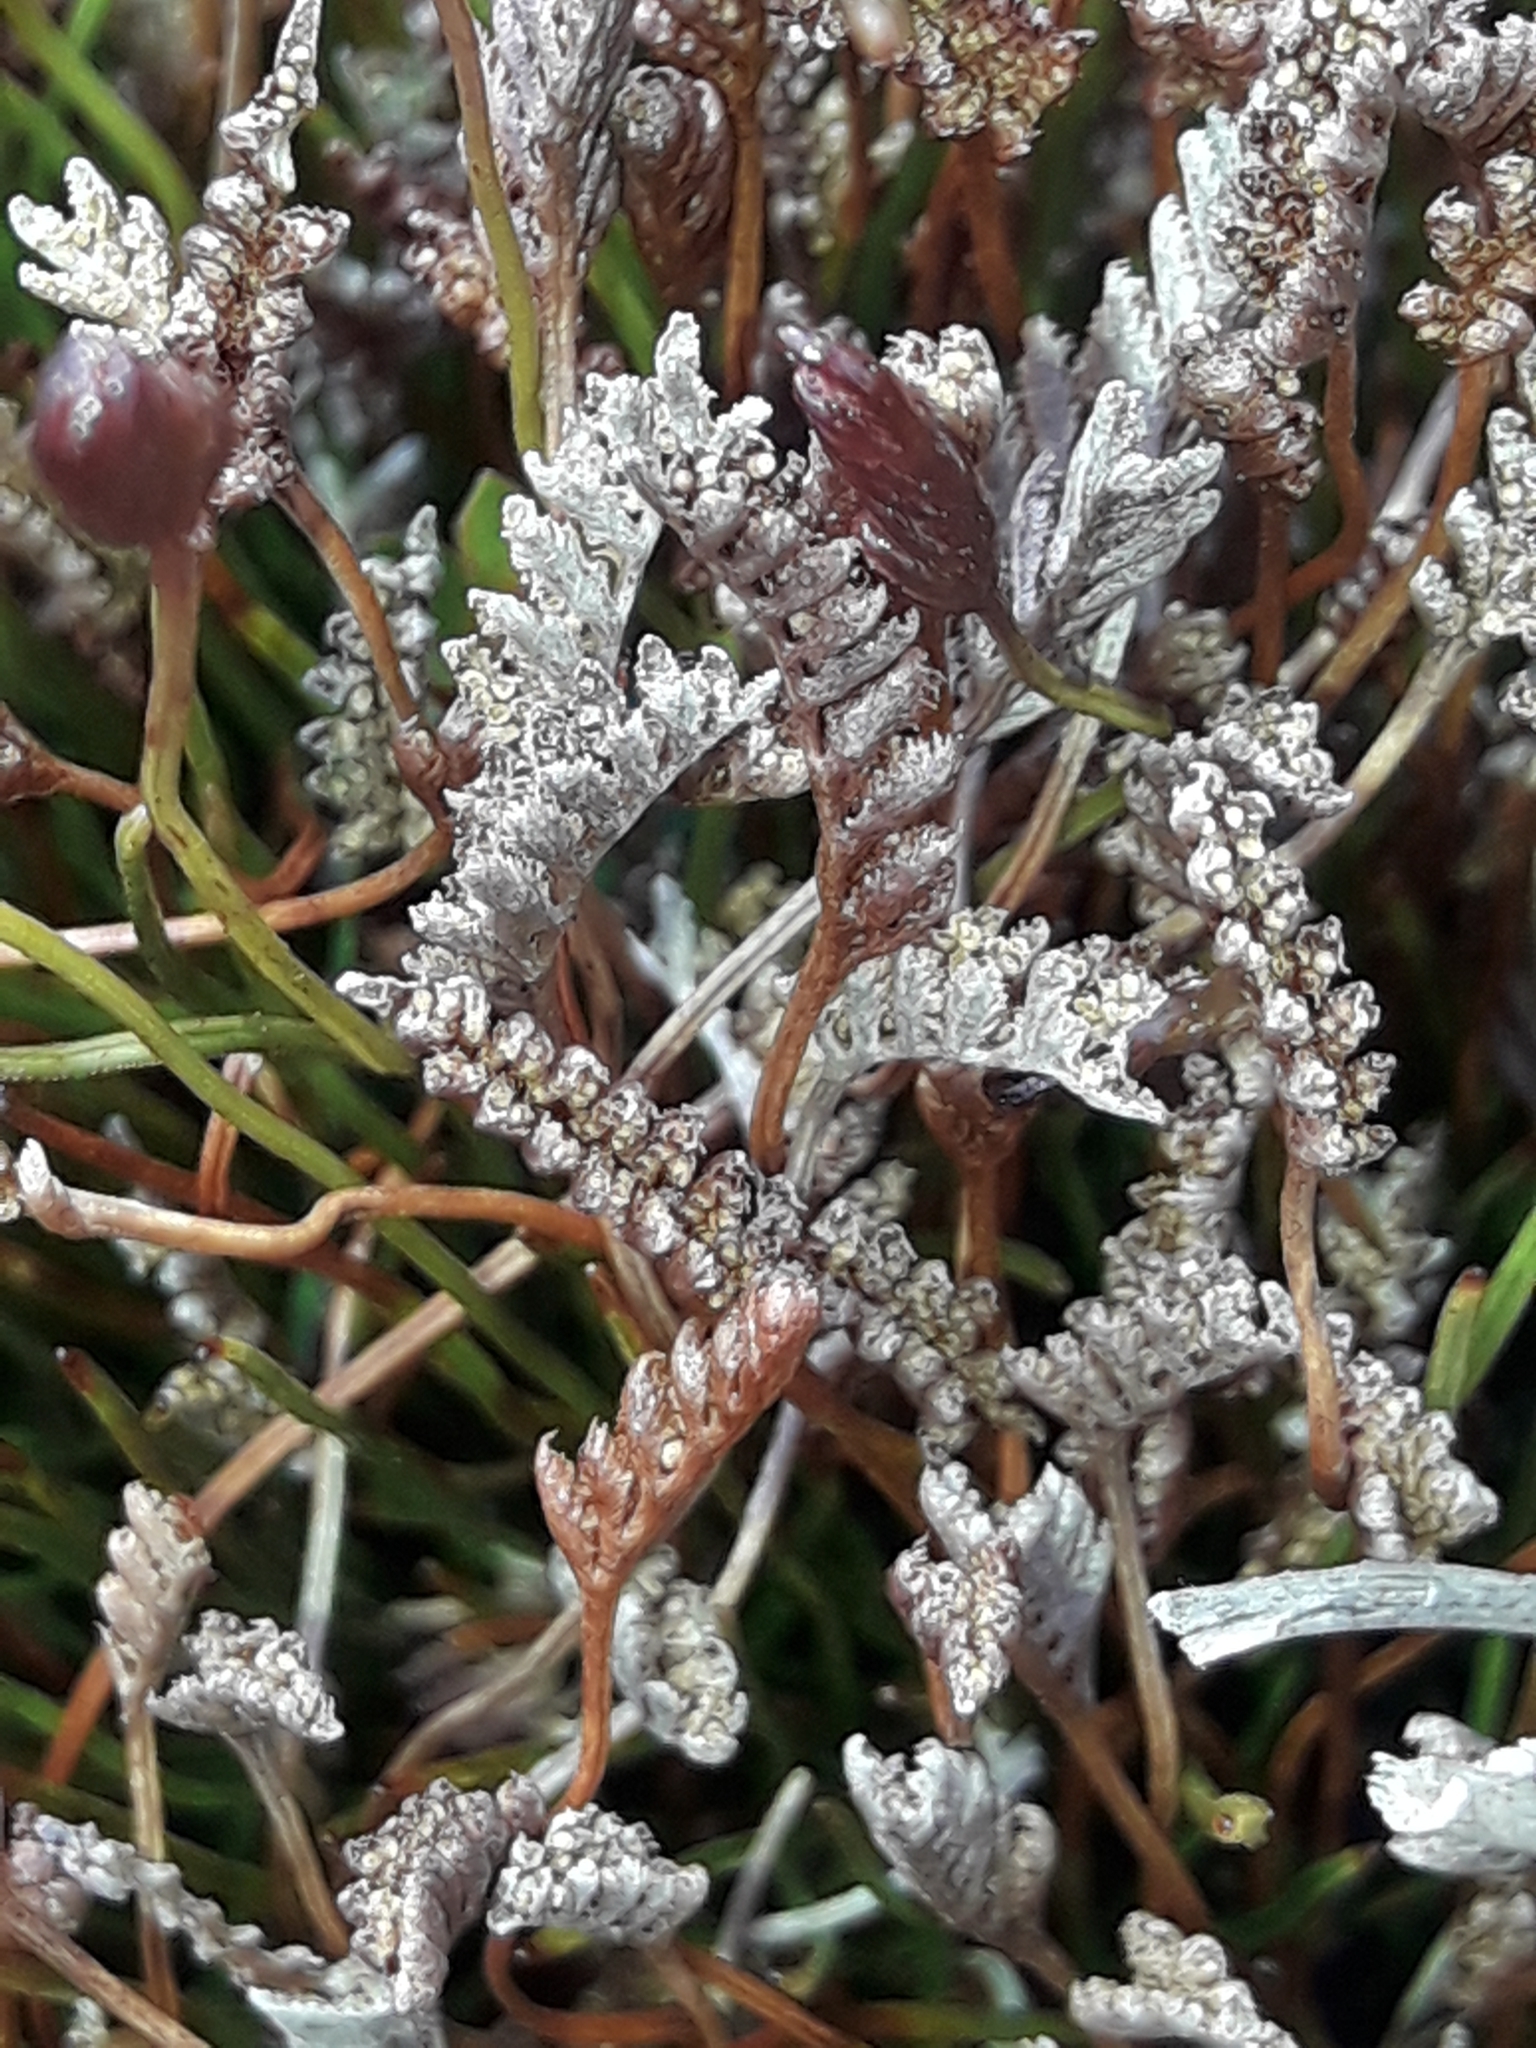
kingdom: Plantae
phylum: Tracheophyta
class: Polypodiopsida
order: Schizaeales
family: Schizaeaceae
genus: Microschizaea
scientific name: Microschizaea australis
